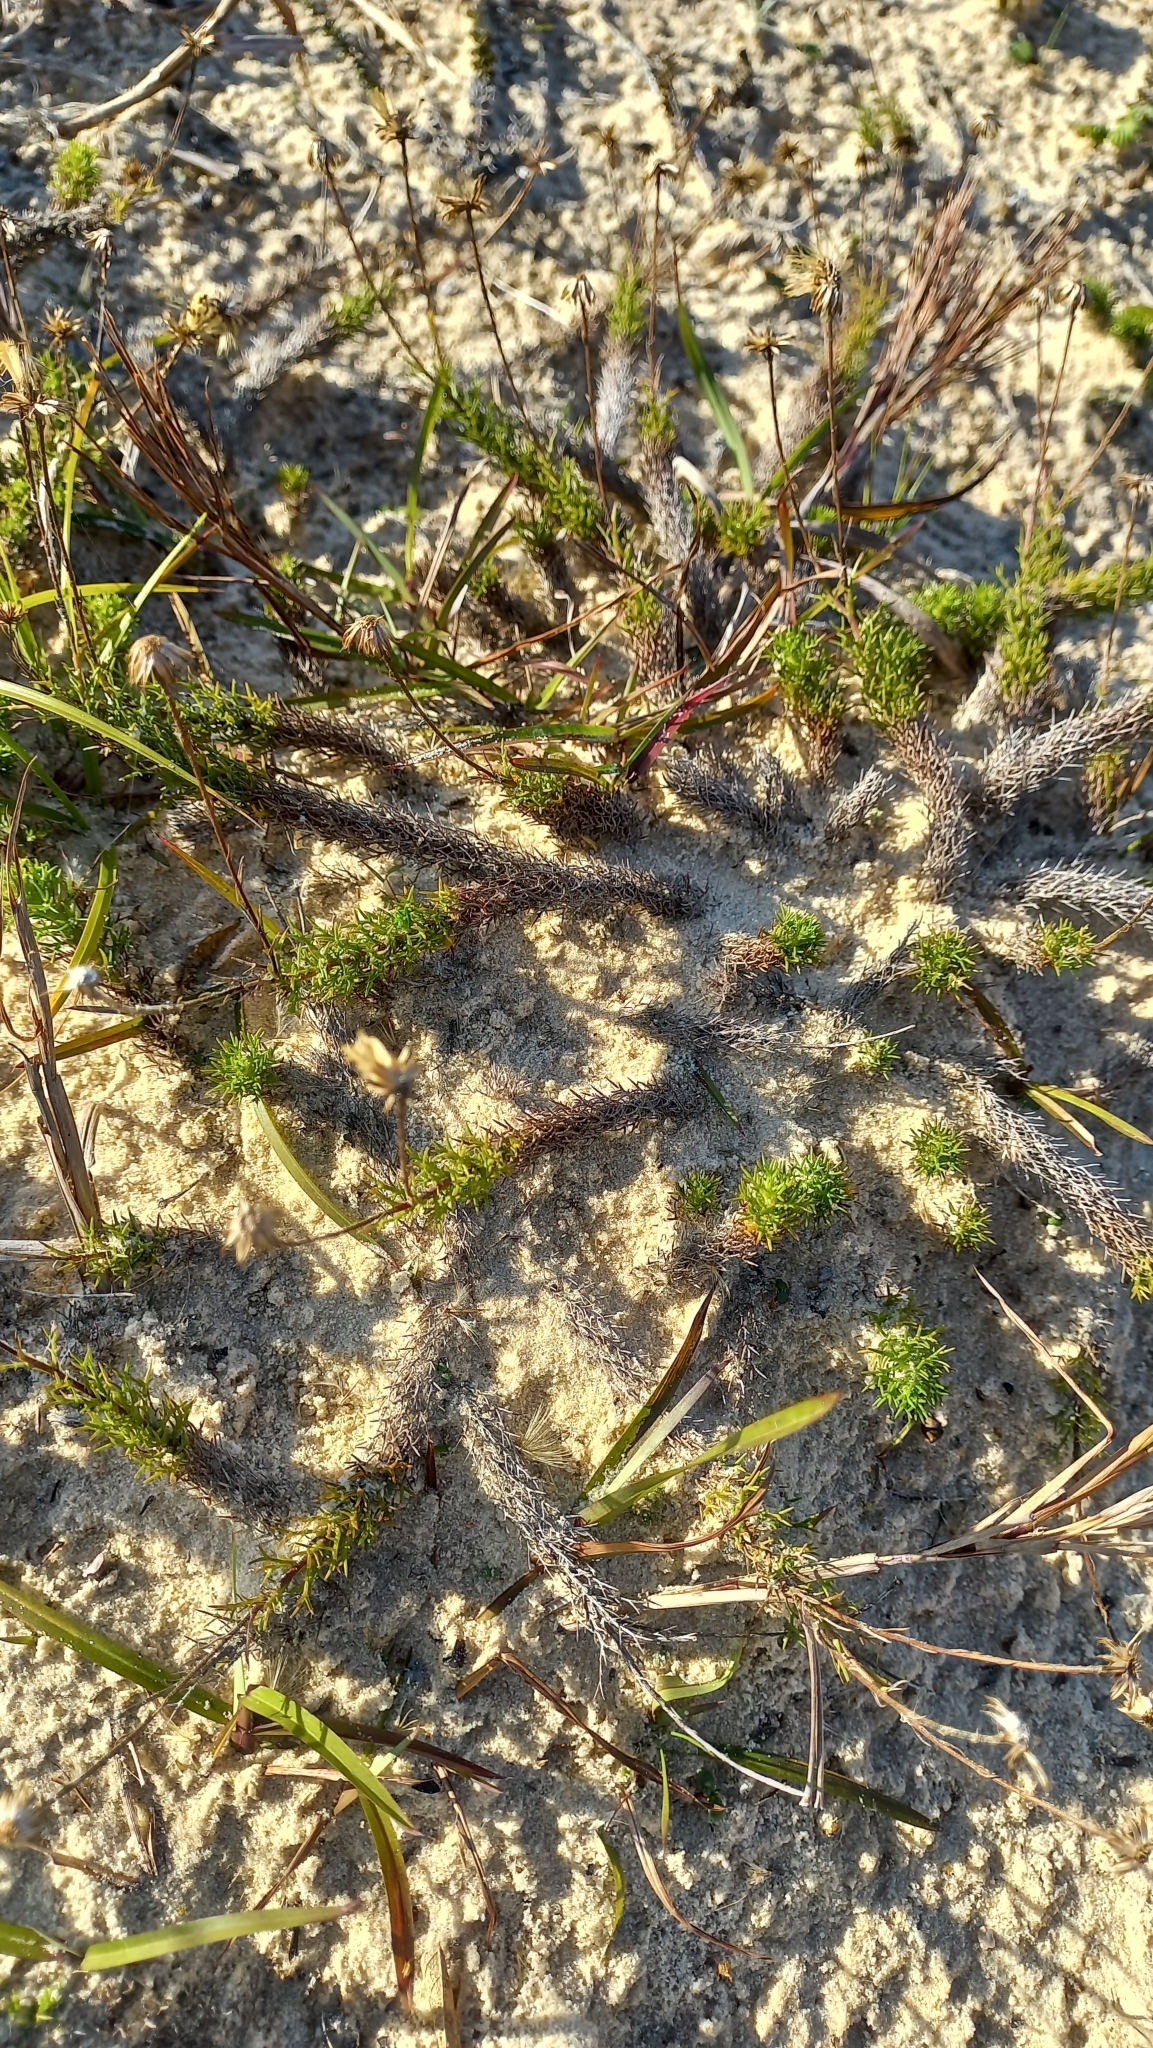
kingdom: Plantae
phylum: Tracheophyta
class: Magnoliopsida
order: Asterales
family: Asteraceae
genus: Sommerfeltia
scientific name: Sommerfeltia spinulosa
